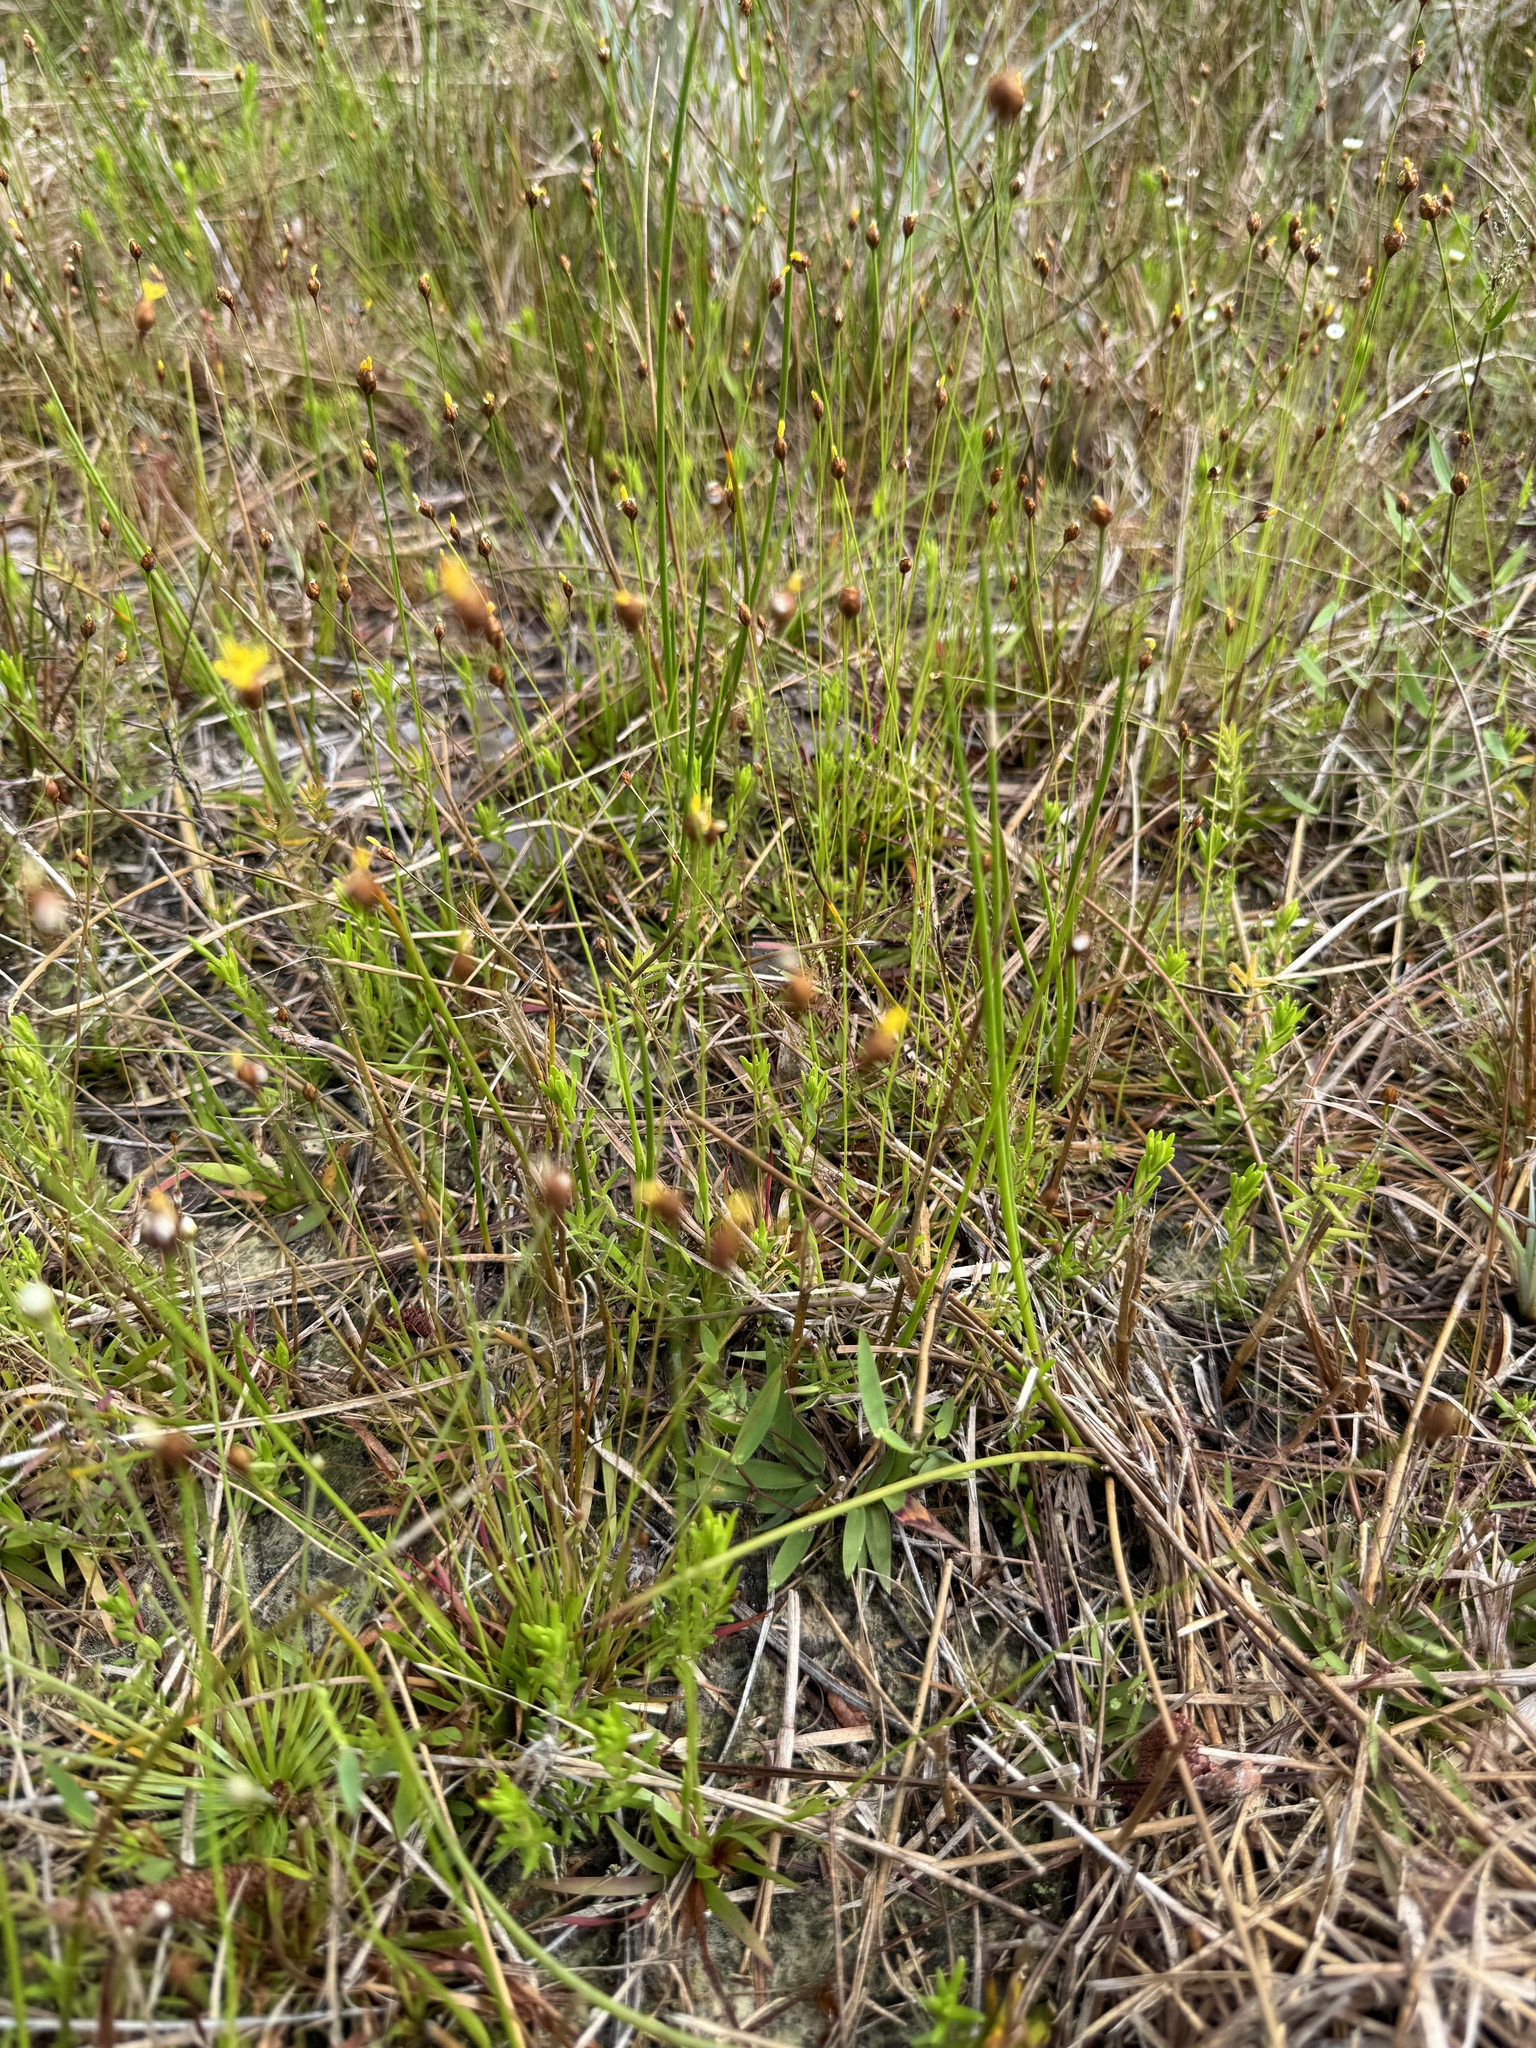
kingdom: Plantae
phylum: Tracheophyta
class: Liliopsida
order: Poales
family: Xyridaceae
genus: Xyris
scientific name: Xyris brevifolia
